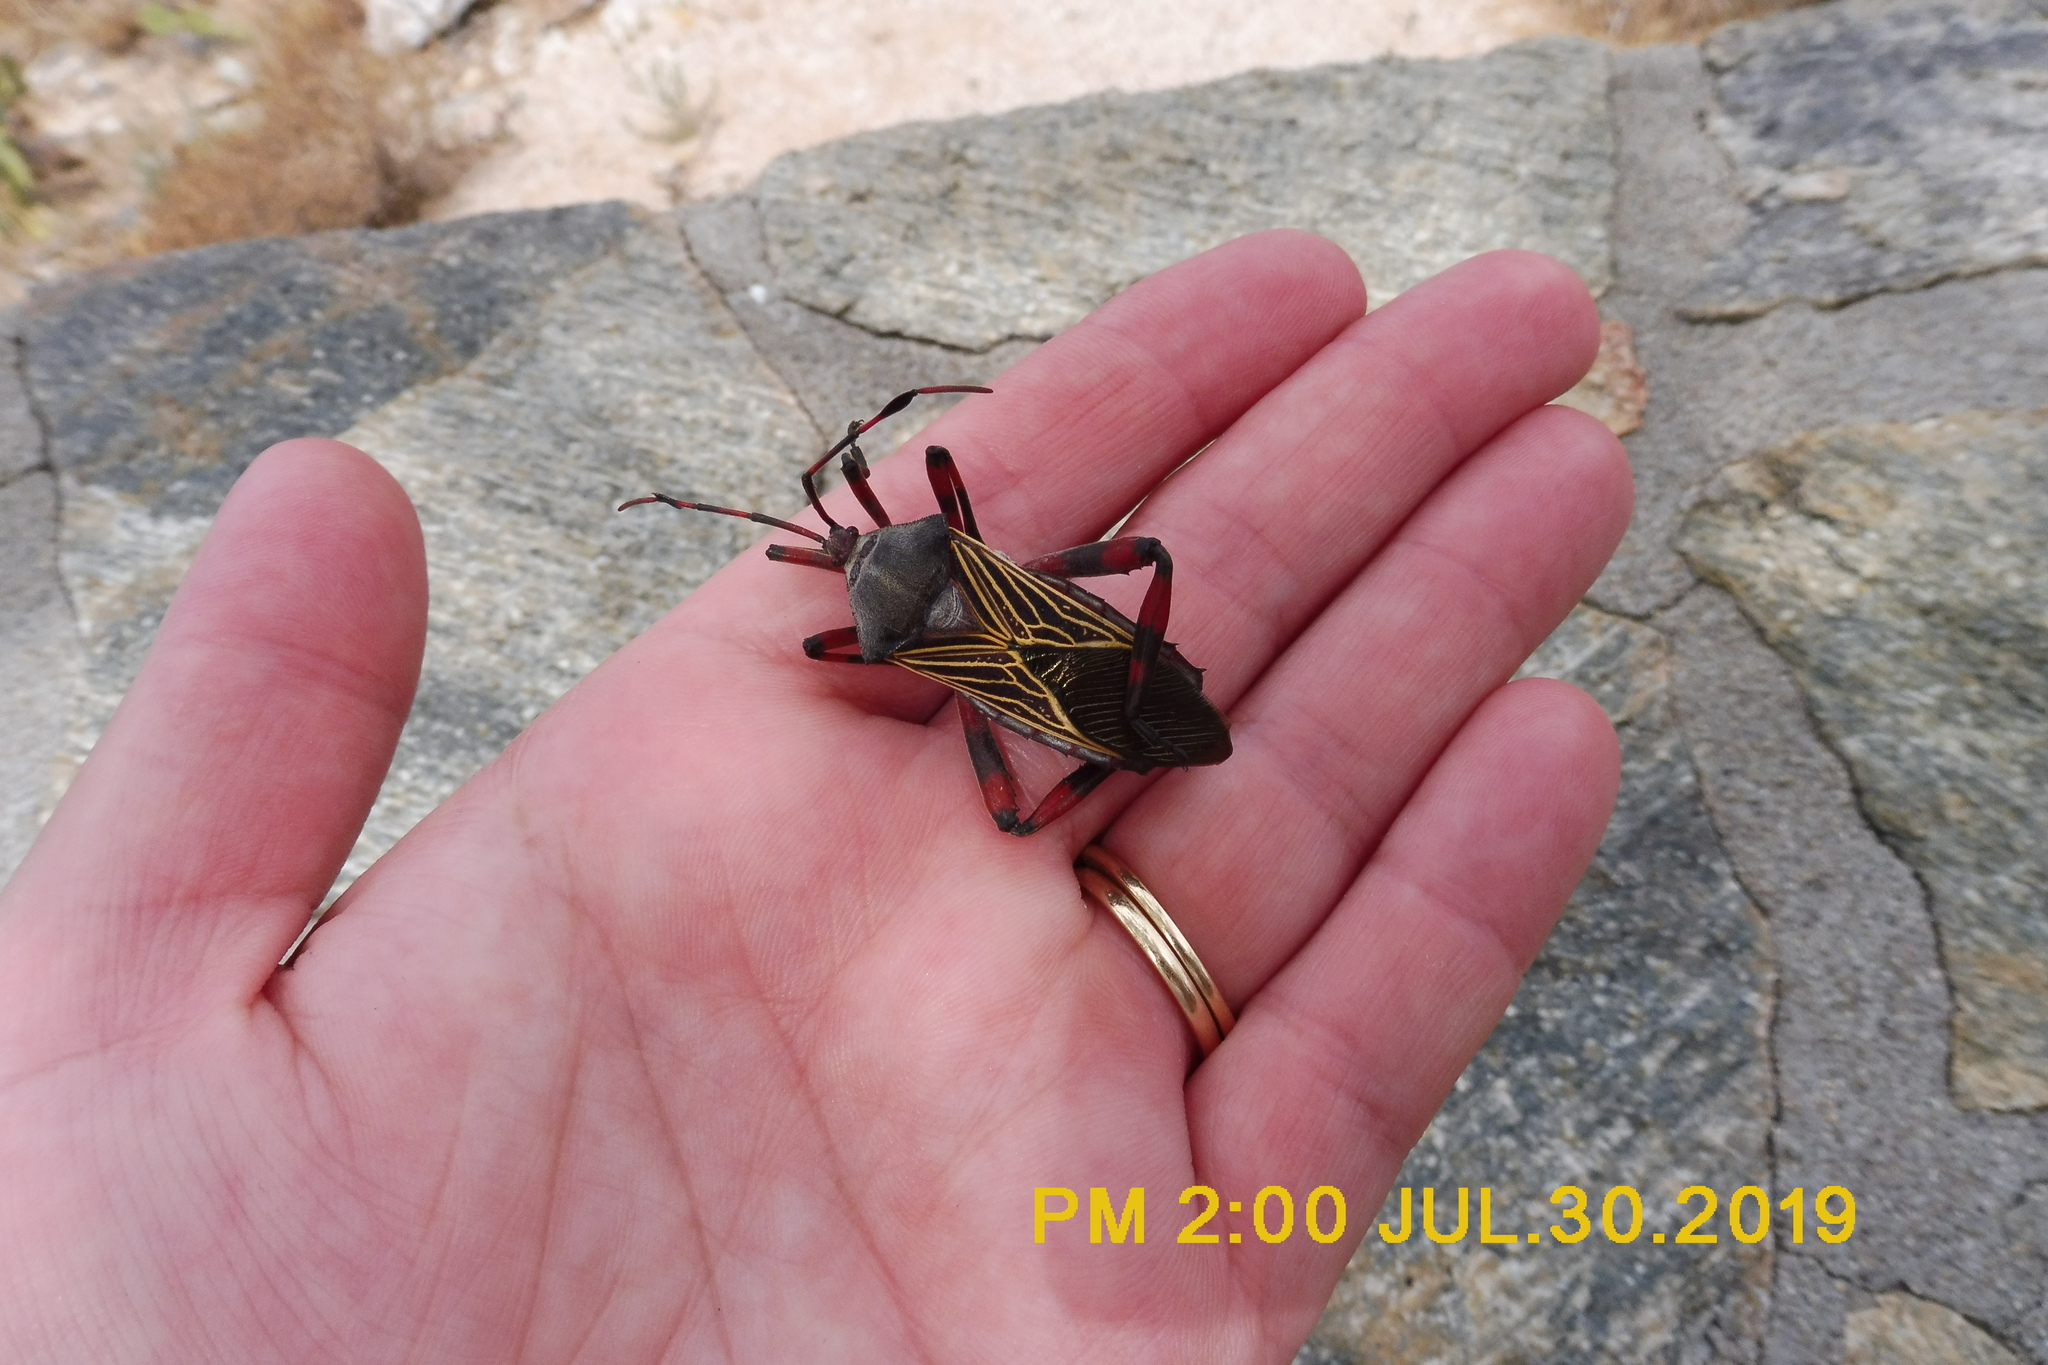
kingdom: Animalia
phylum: Arthropoda
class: Insecta
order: Hemiptera
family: Coreidae
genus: Thasus
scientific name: Thasus neocalifornicus
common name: Giant mesquite bug
